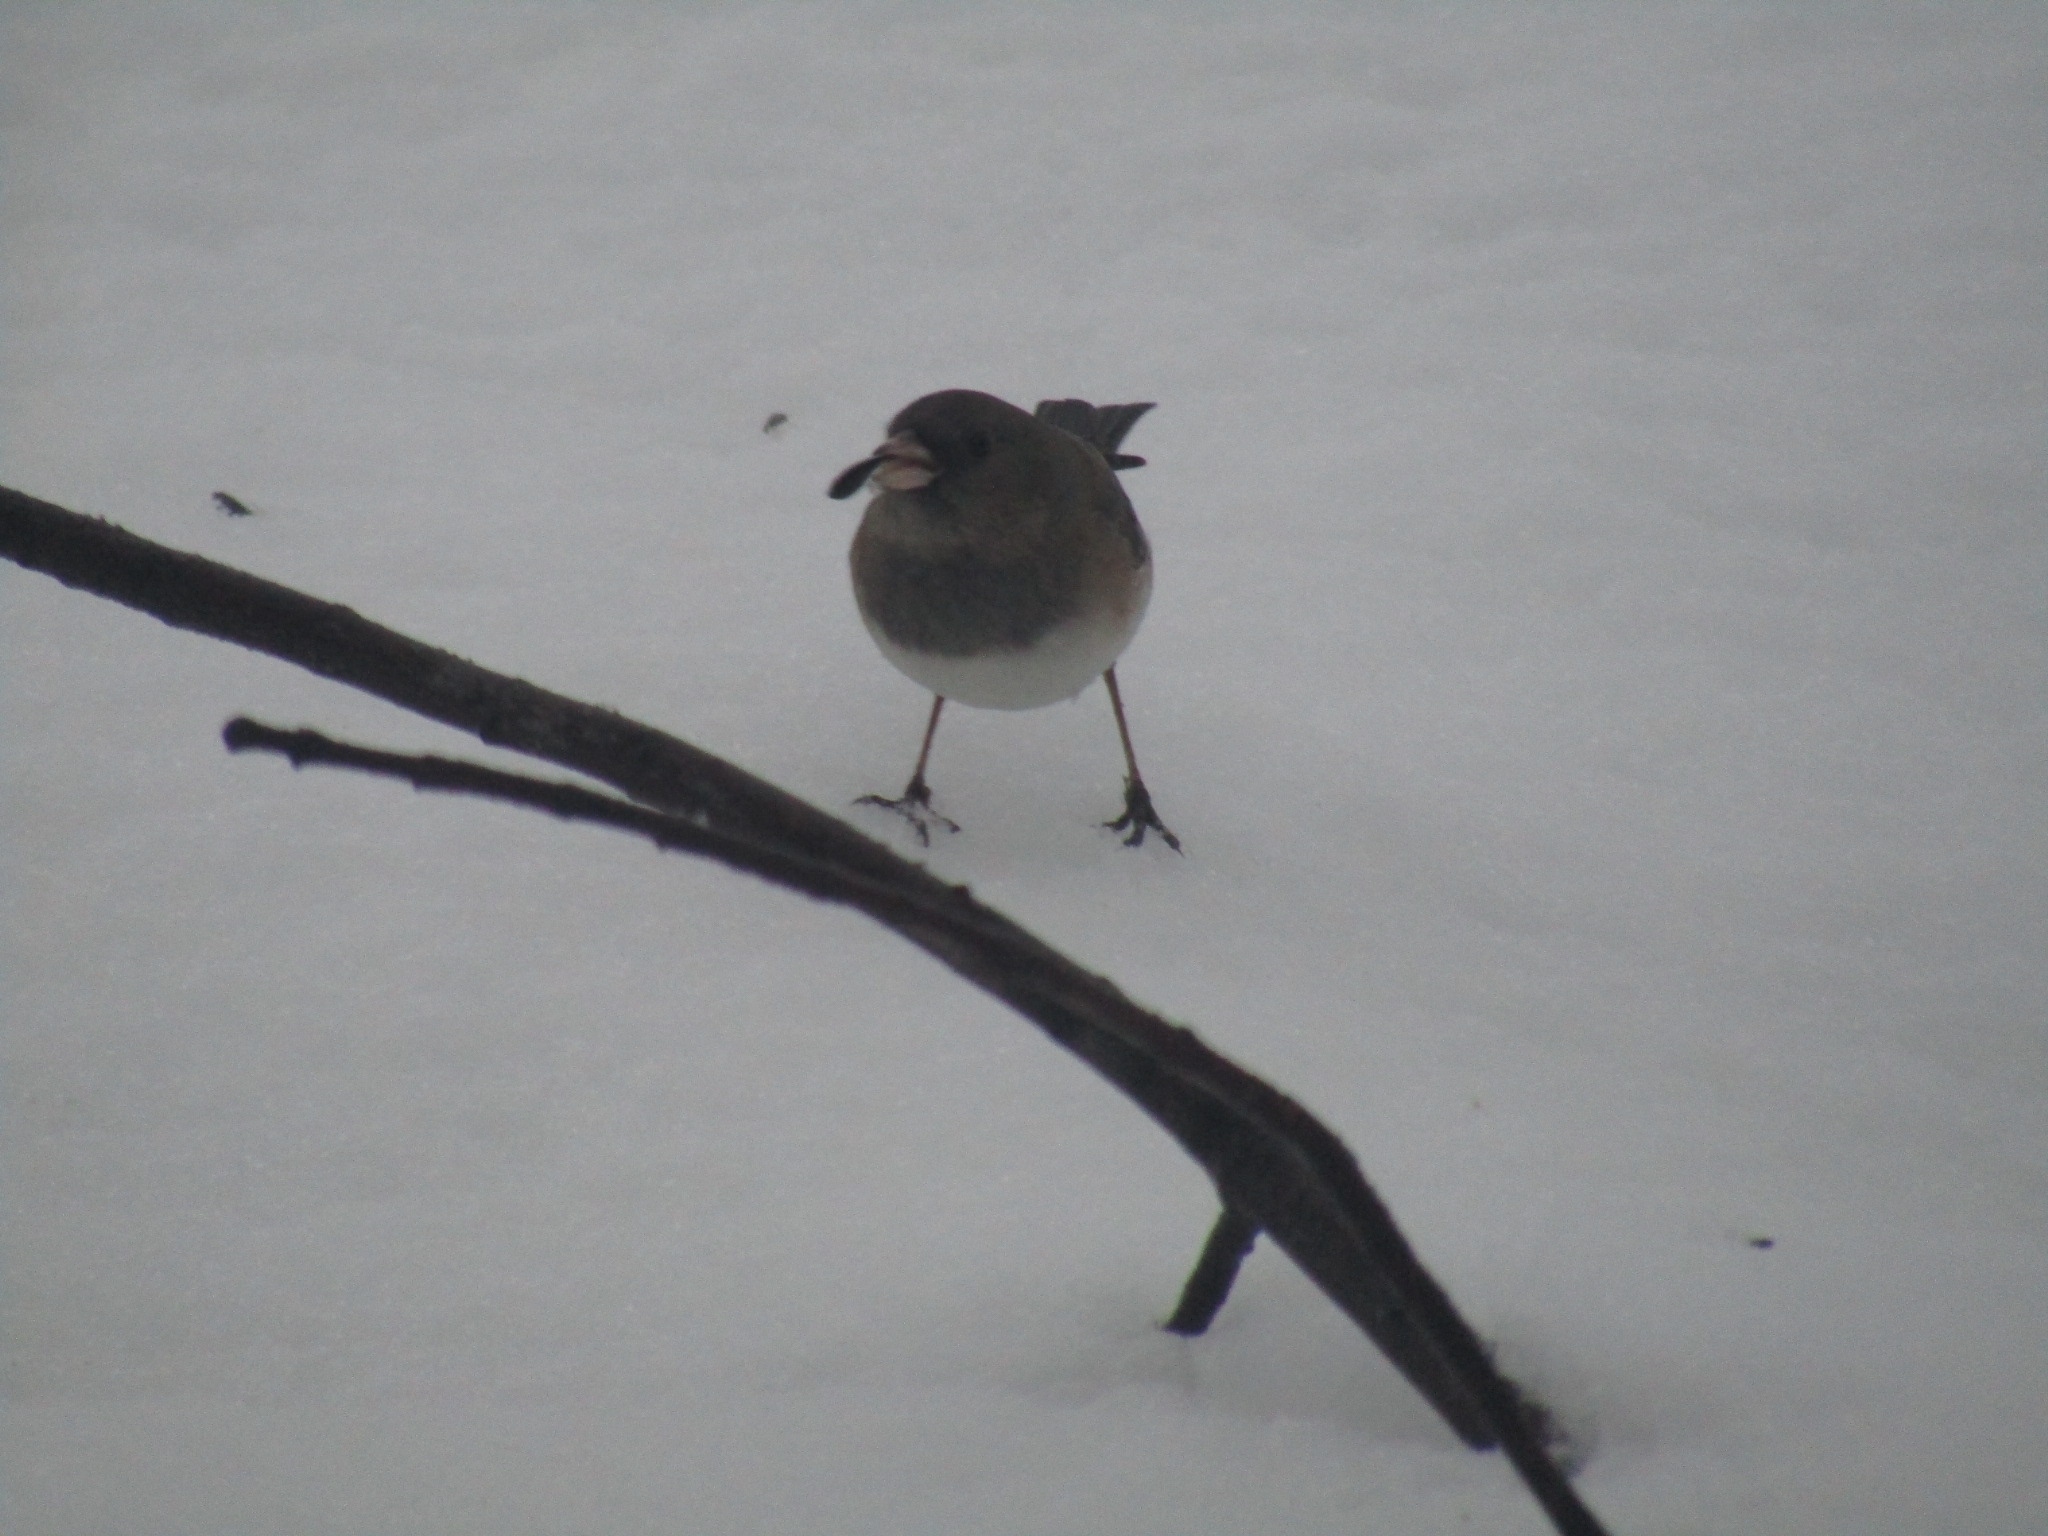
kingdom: Animalia
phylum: Chordata
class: Aves
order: Passeriformes
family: Passerellidae
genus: Junco
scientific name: Junco hyemalis
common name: Dark-eyed junco
